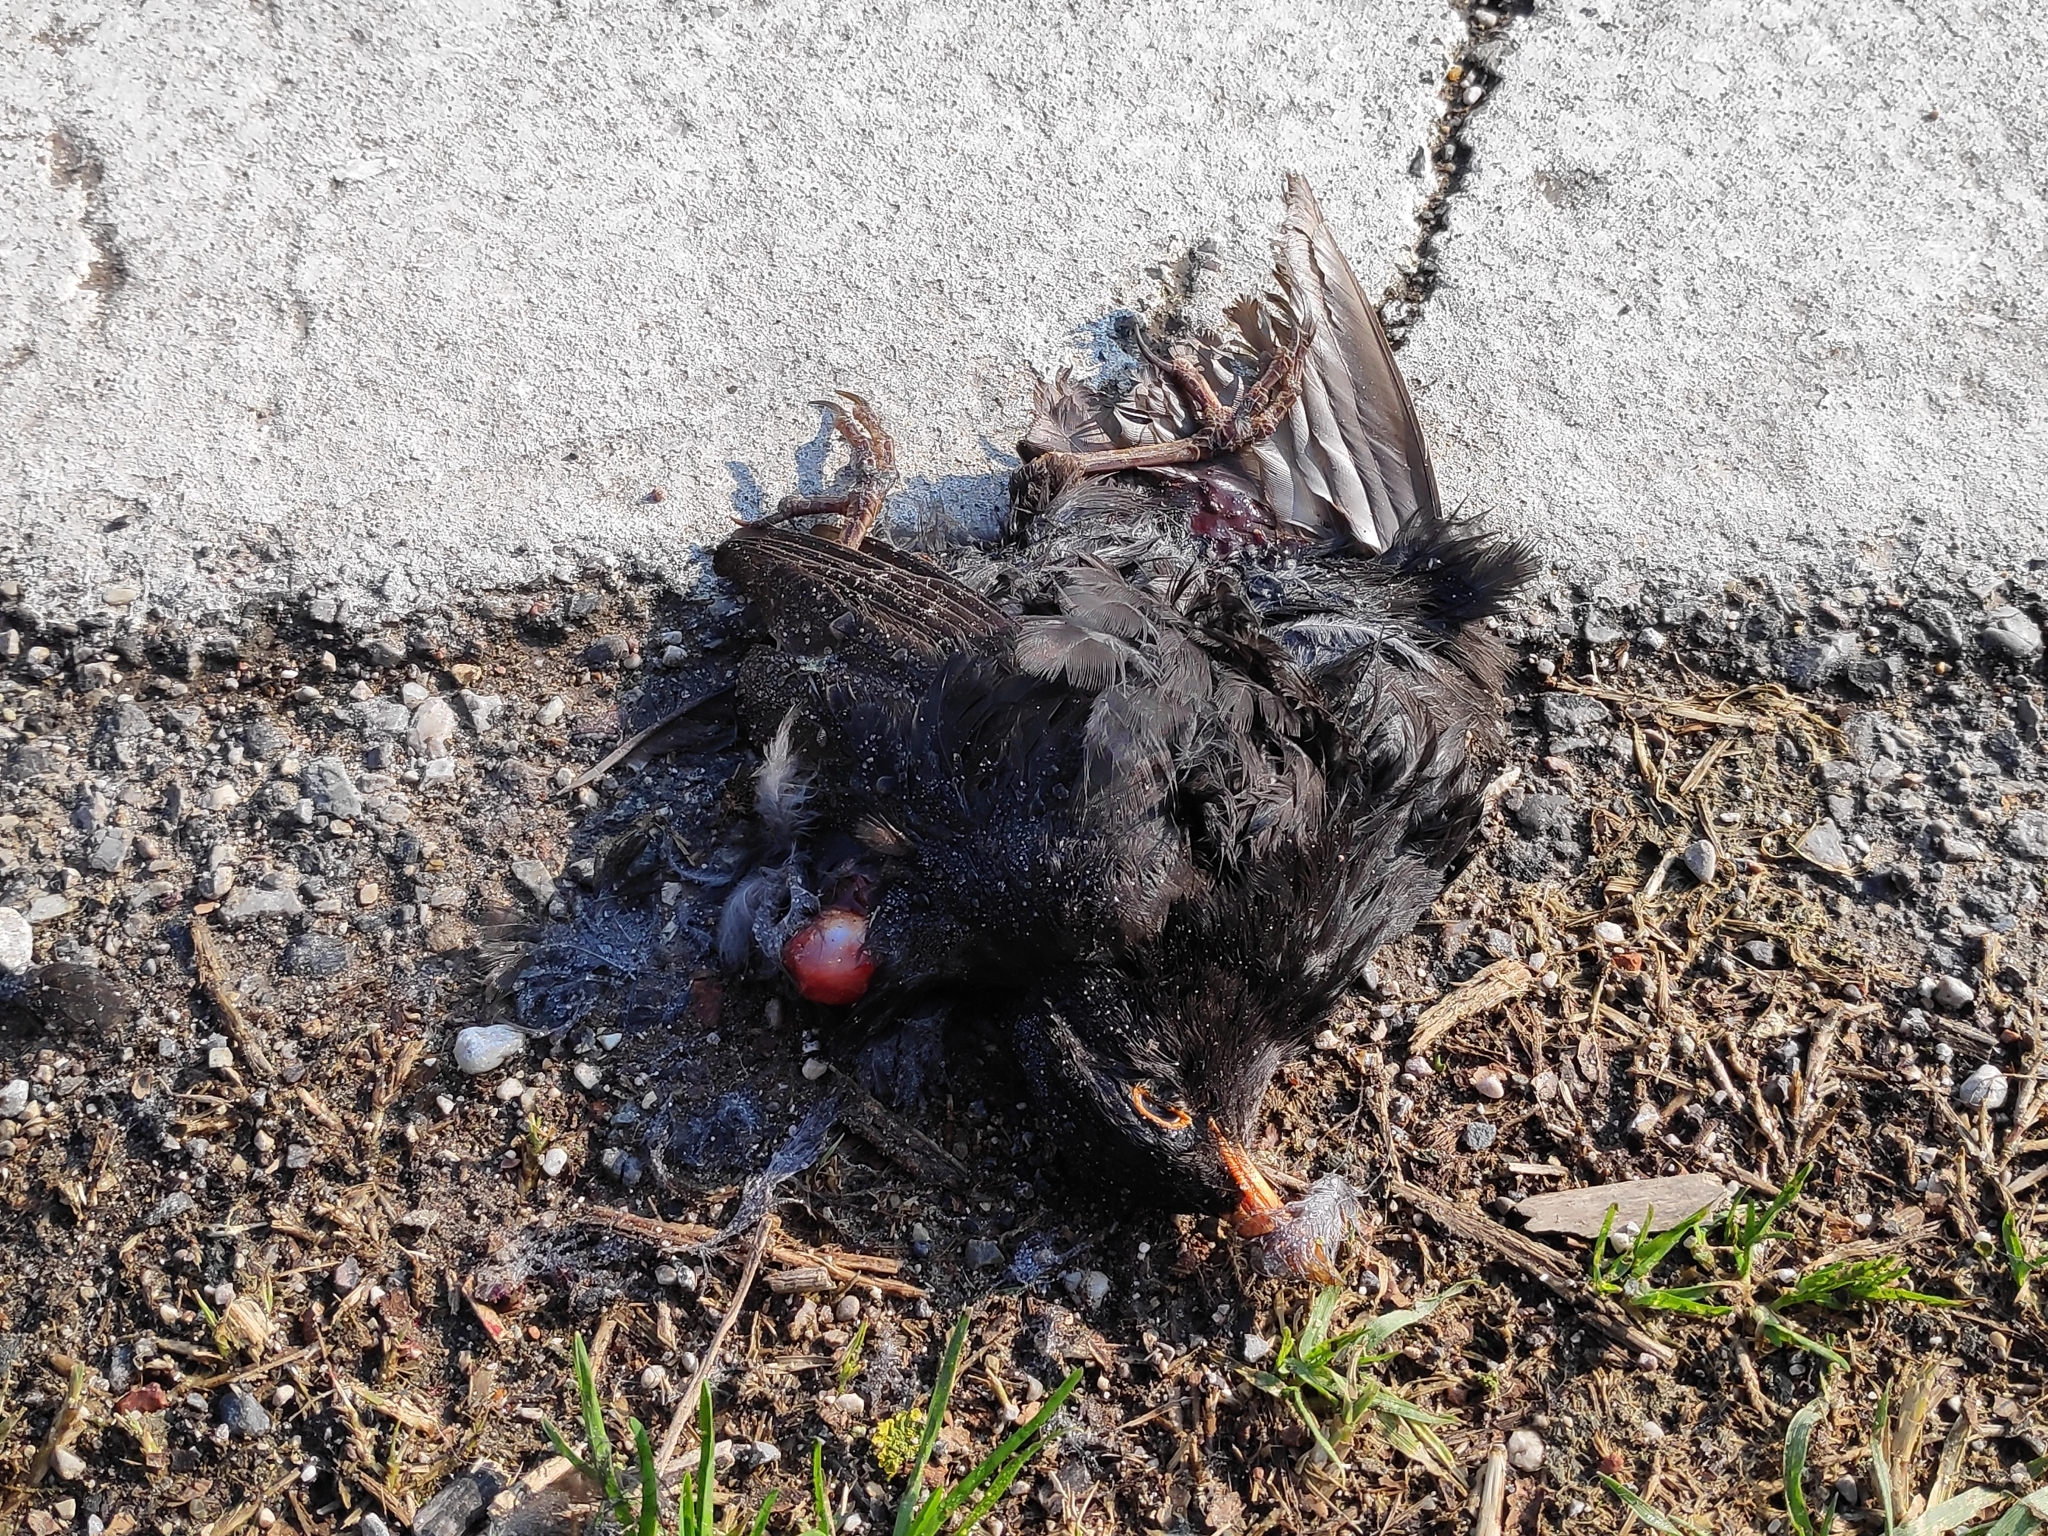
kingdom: Animalia
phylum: Chordata
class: Aves
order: Passeriformes
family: Turdidae
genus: Turdus
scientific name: Turdus merula
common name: Common blackbird
